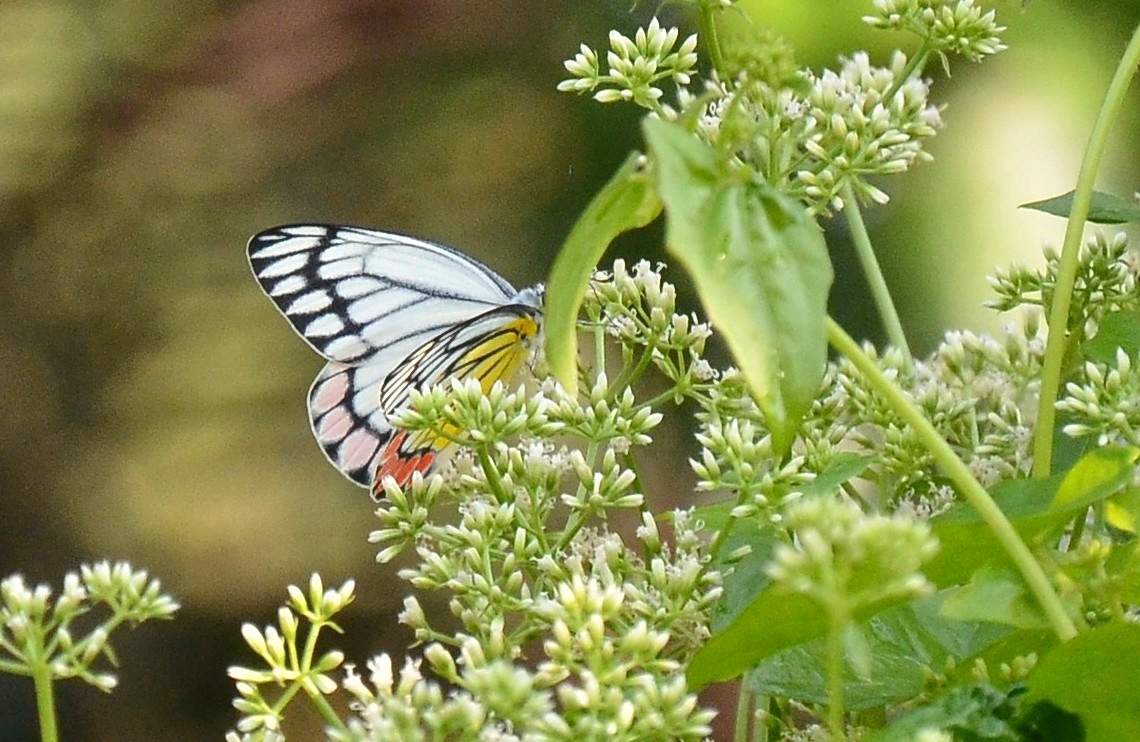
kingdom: Animalia
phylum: Arthropoda
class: Insecta
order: Lepidoptera
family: Pieridae
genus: Delias
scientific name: Delias eucharis
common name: Common jezebel
